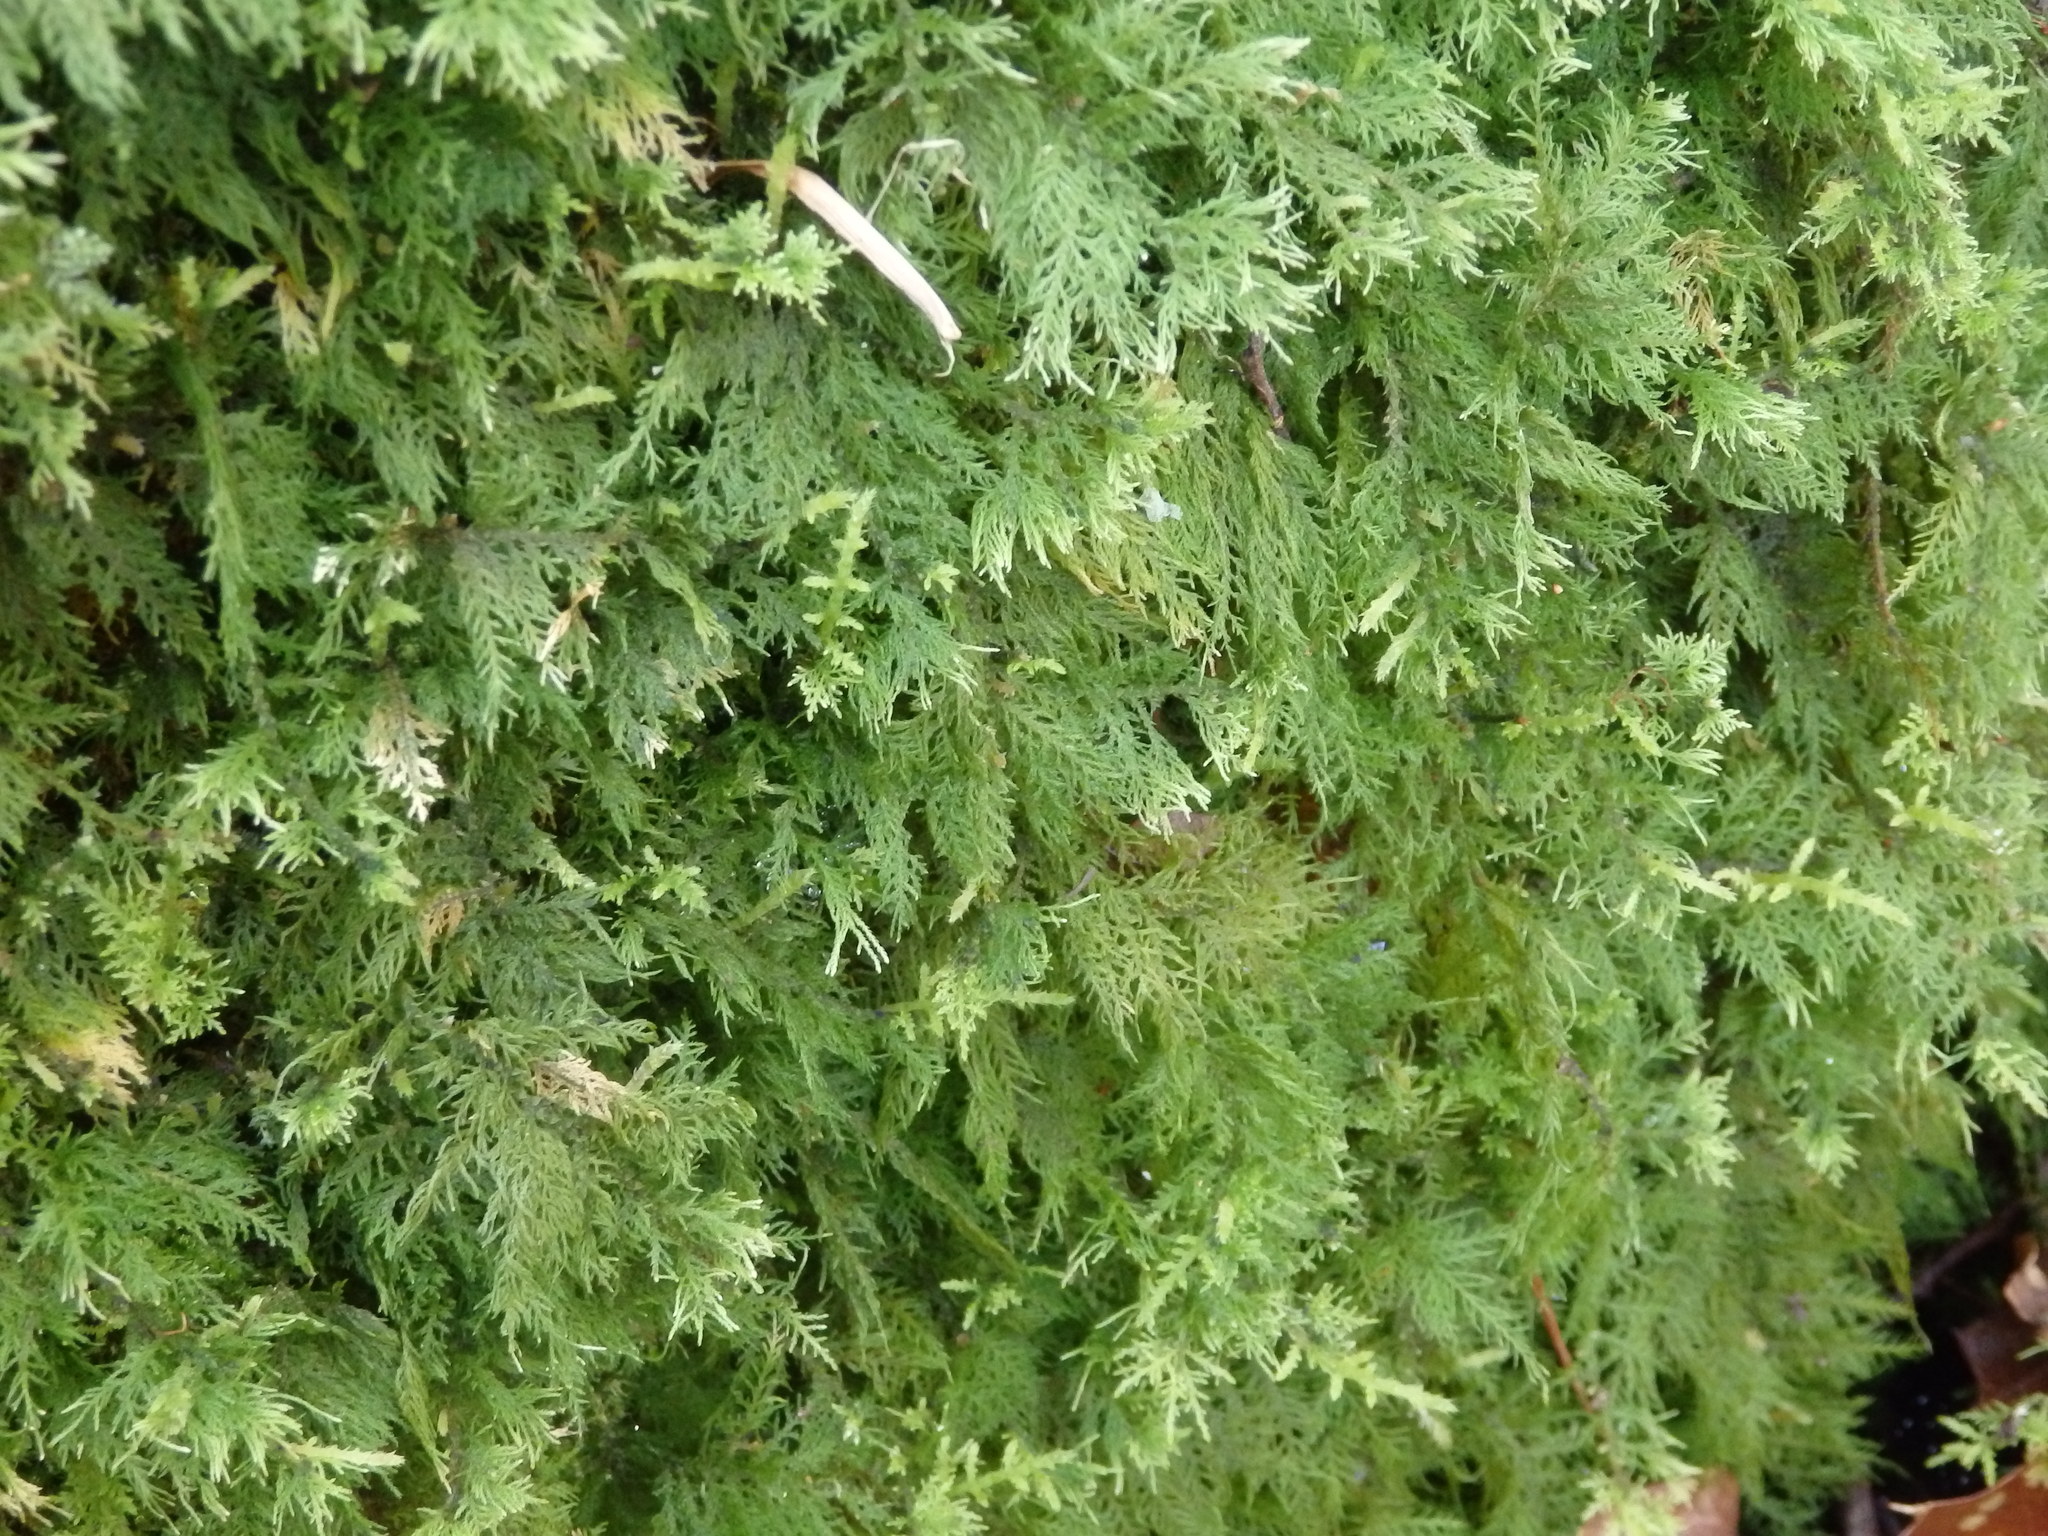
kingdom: Plantae
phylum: Bryophyta
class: Bryopsida
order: Hypnales
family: Thuidiaceae
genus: Thuidium
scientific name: Thuidium tamariscinum
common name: Common tamarisk-moss
